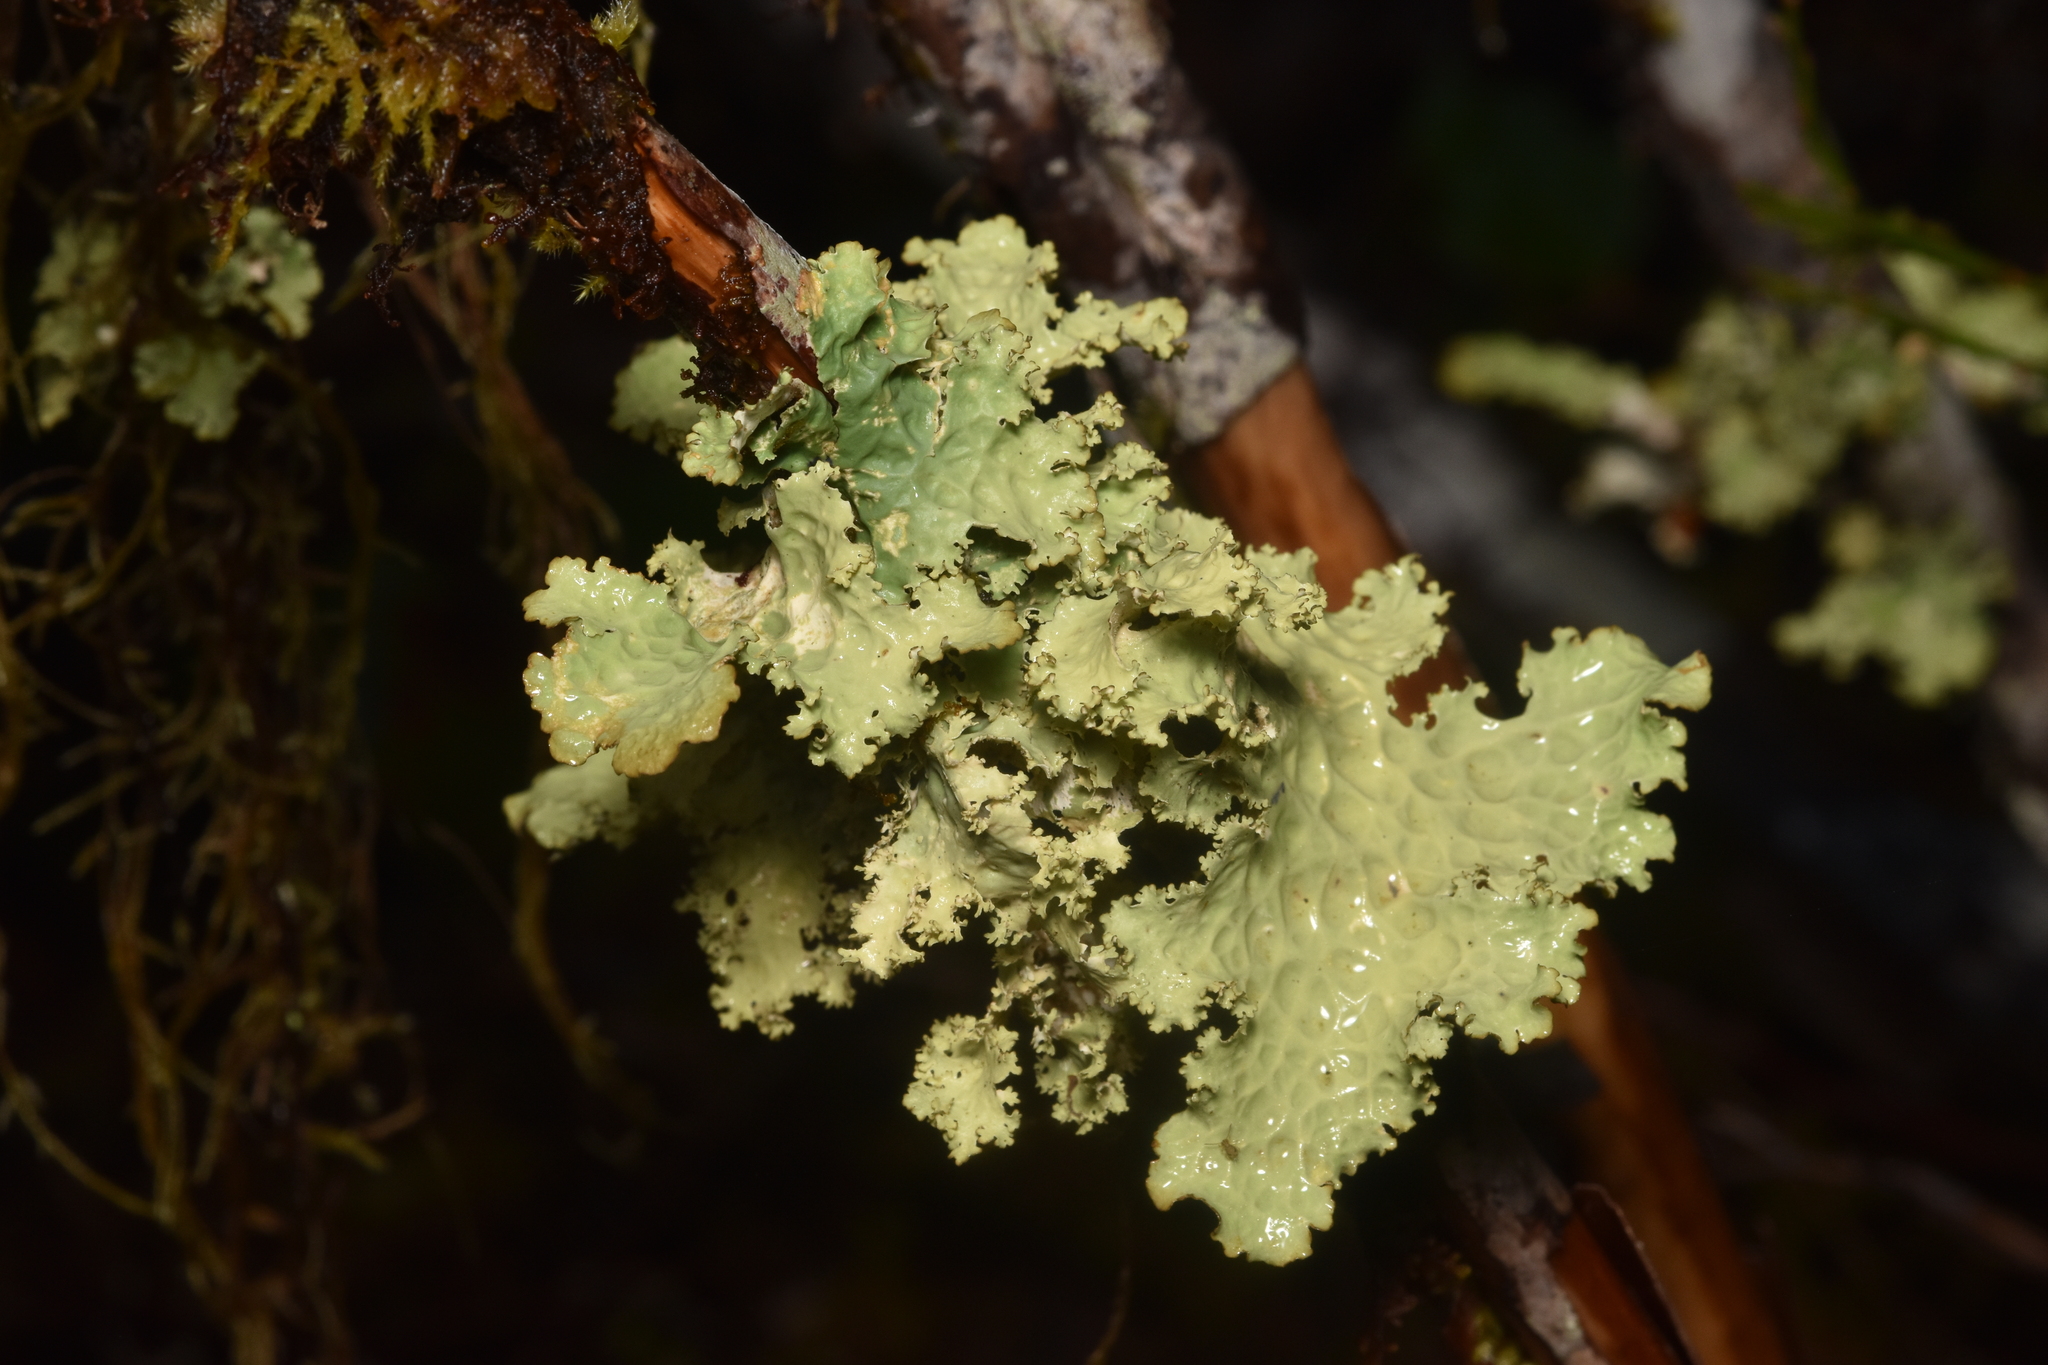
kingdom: Fungi
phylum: Ascomycota
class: Lecanoromycetes
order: Peltigerales
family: Lobariaceae
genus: Lobaria
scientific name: Lobaria oregana
